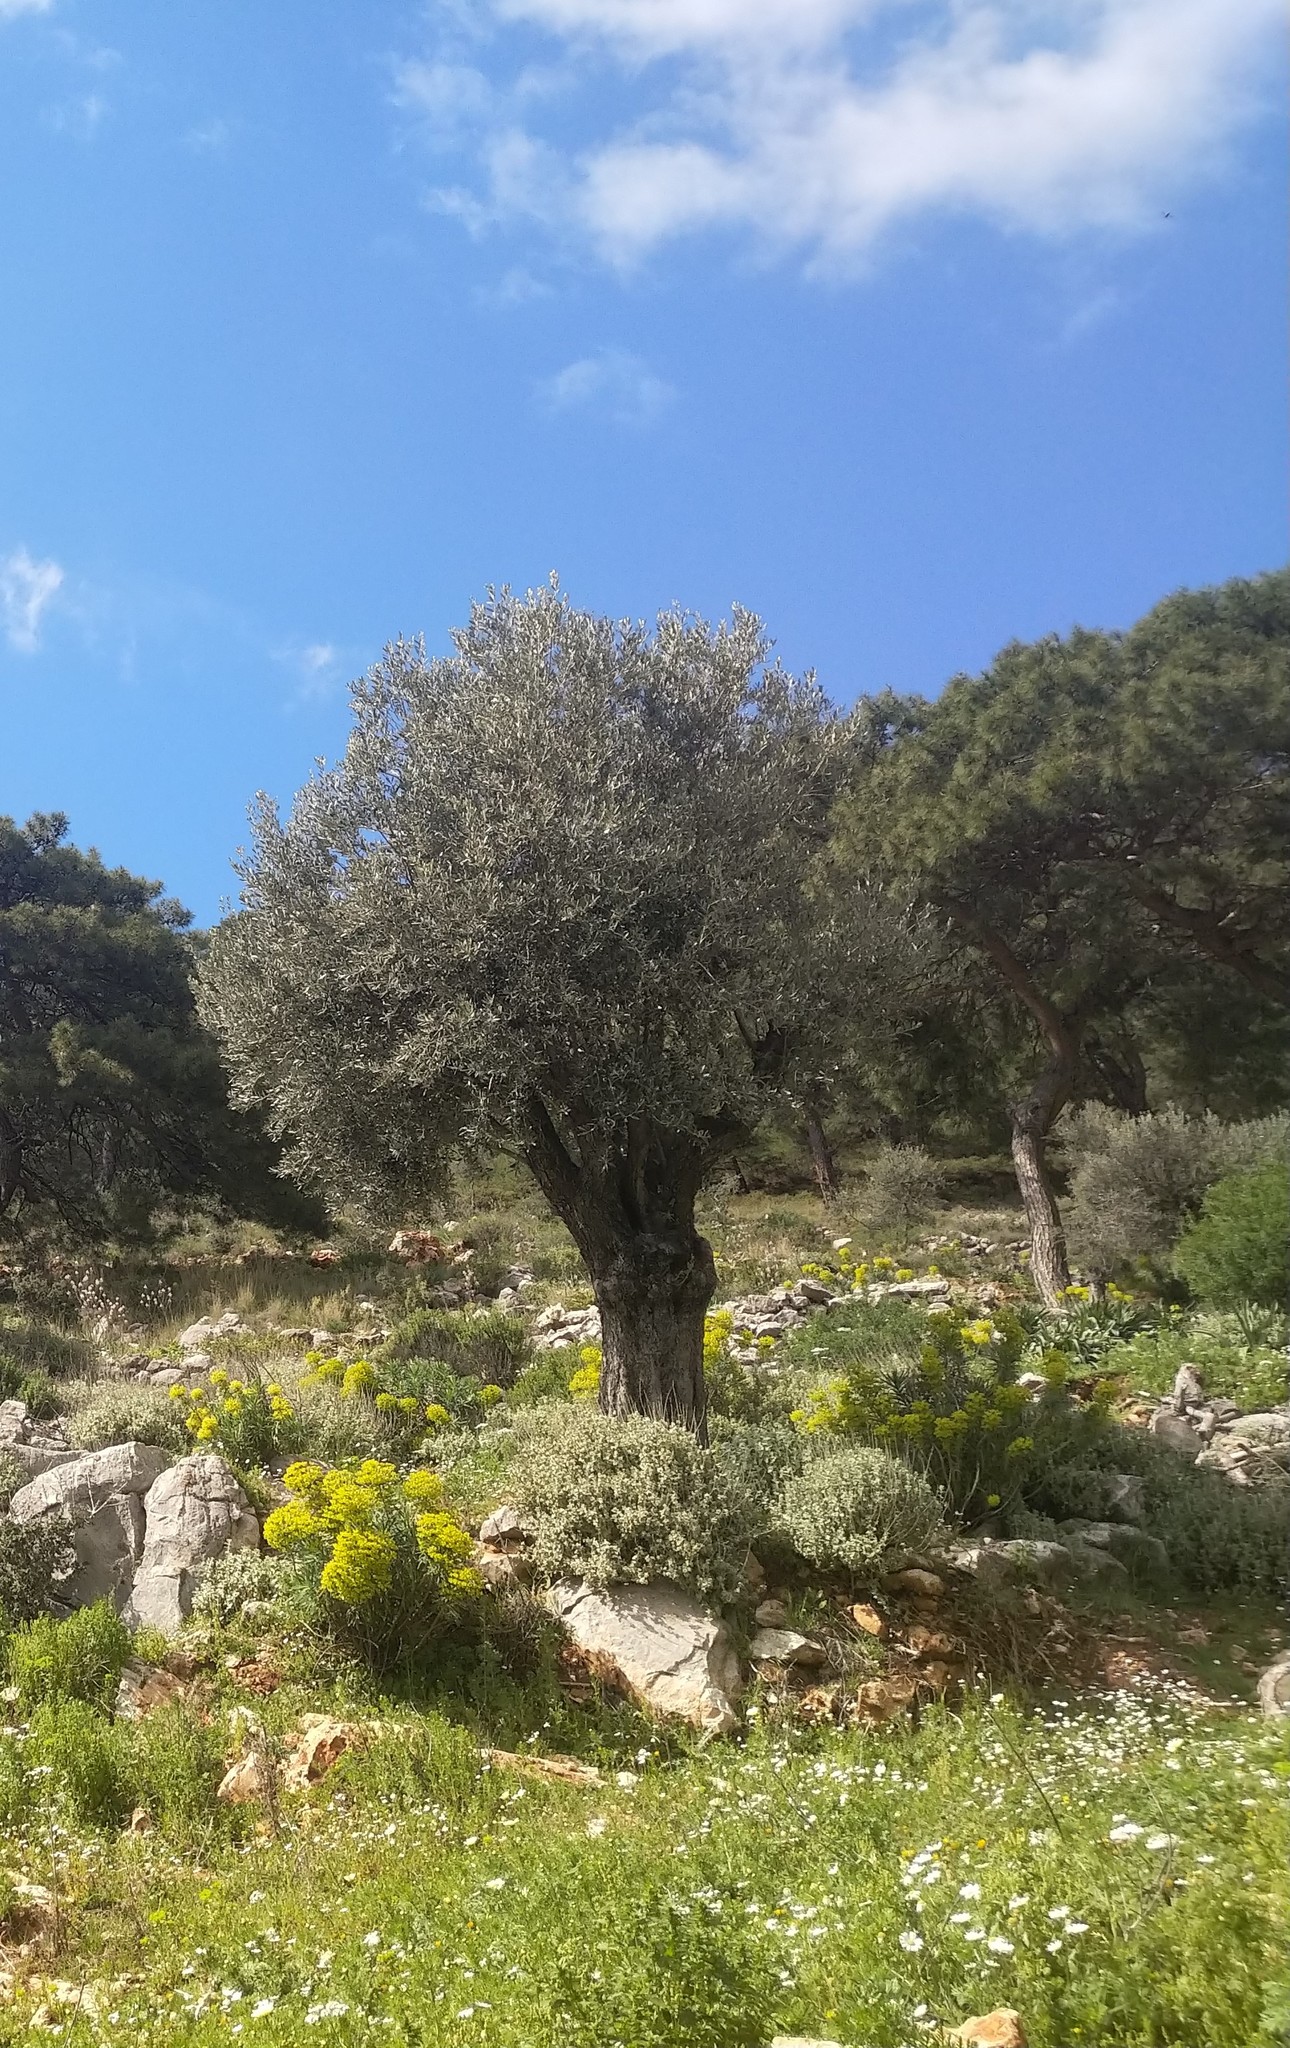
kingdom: Plantae
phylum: Tracheophyta
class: Magnoliopsida
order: Lamiales
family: Oleaceae
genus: Olea
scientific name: Olea europaea
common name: Olive
